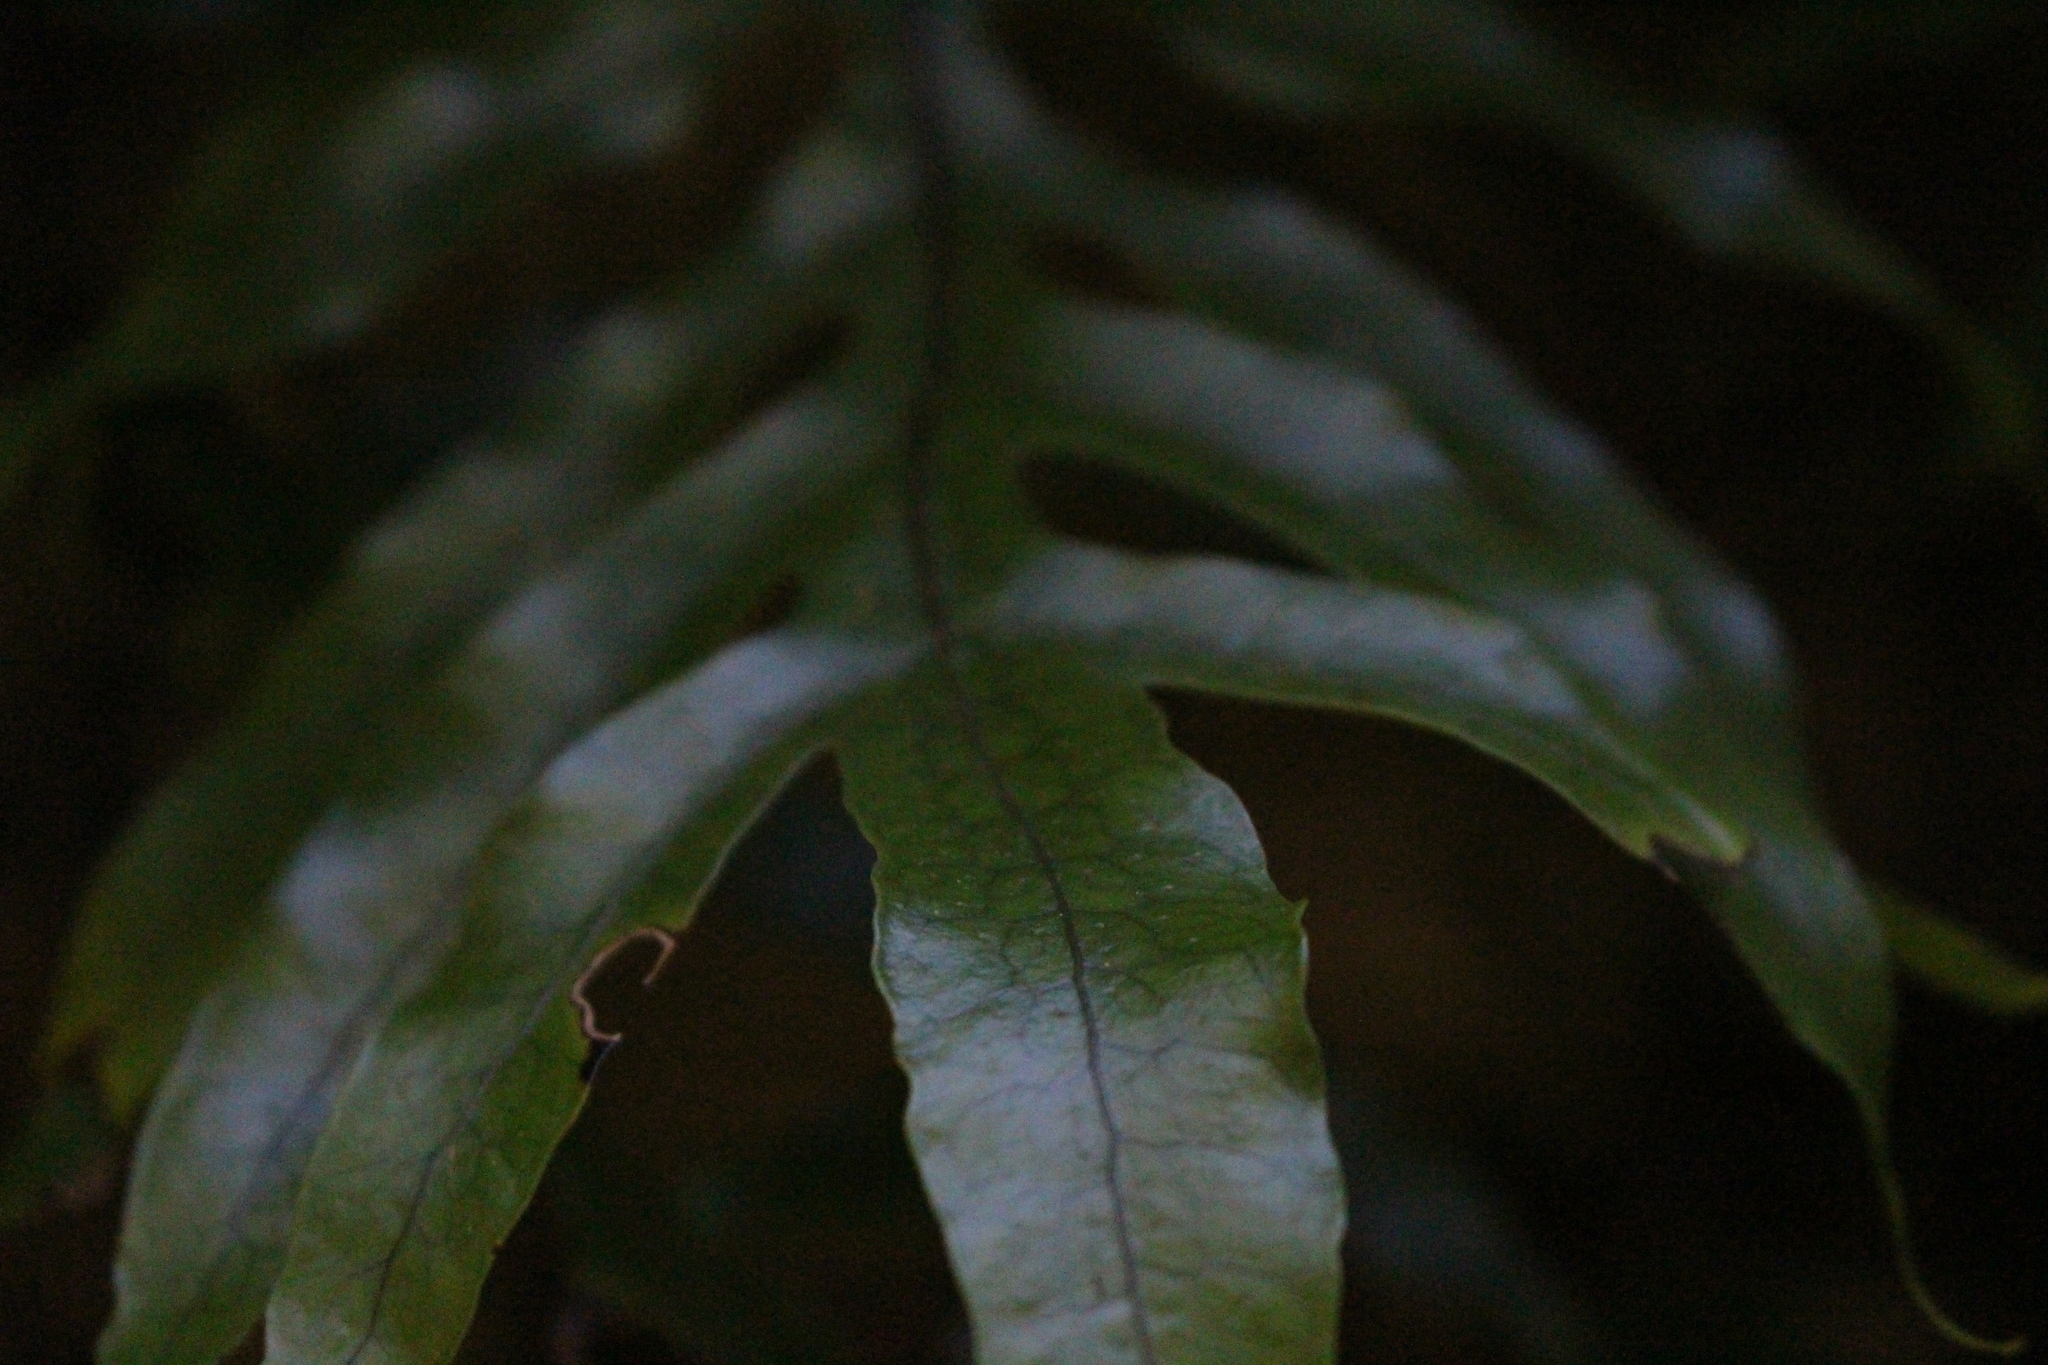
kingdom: Plantae
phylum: Tracheophyta
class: Polypodiopsida
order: Polypodiales
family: Polypodiaceae
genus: Lecanopteris
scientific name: Lecanopteris pustulata
